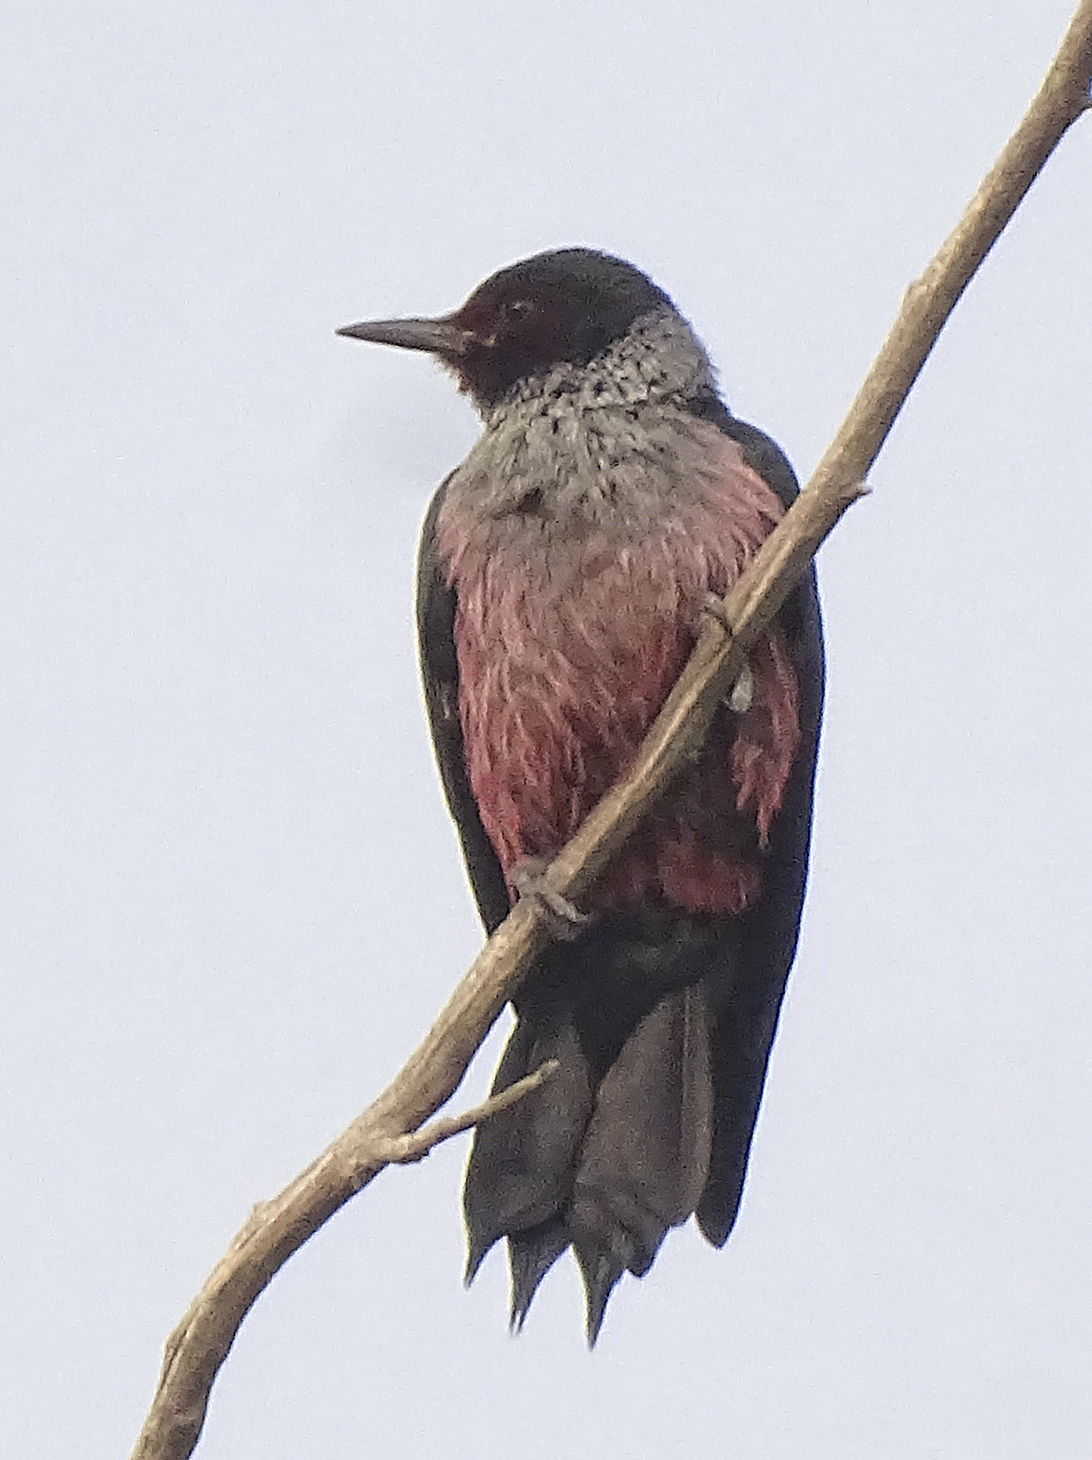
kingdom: Animalia
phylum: Chordata
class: Aves
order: Piciformes
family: Picidae
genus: Melanerpes
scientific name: Melanerpes lewis
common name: Lewis's woodpecker
